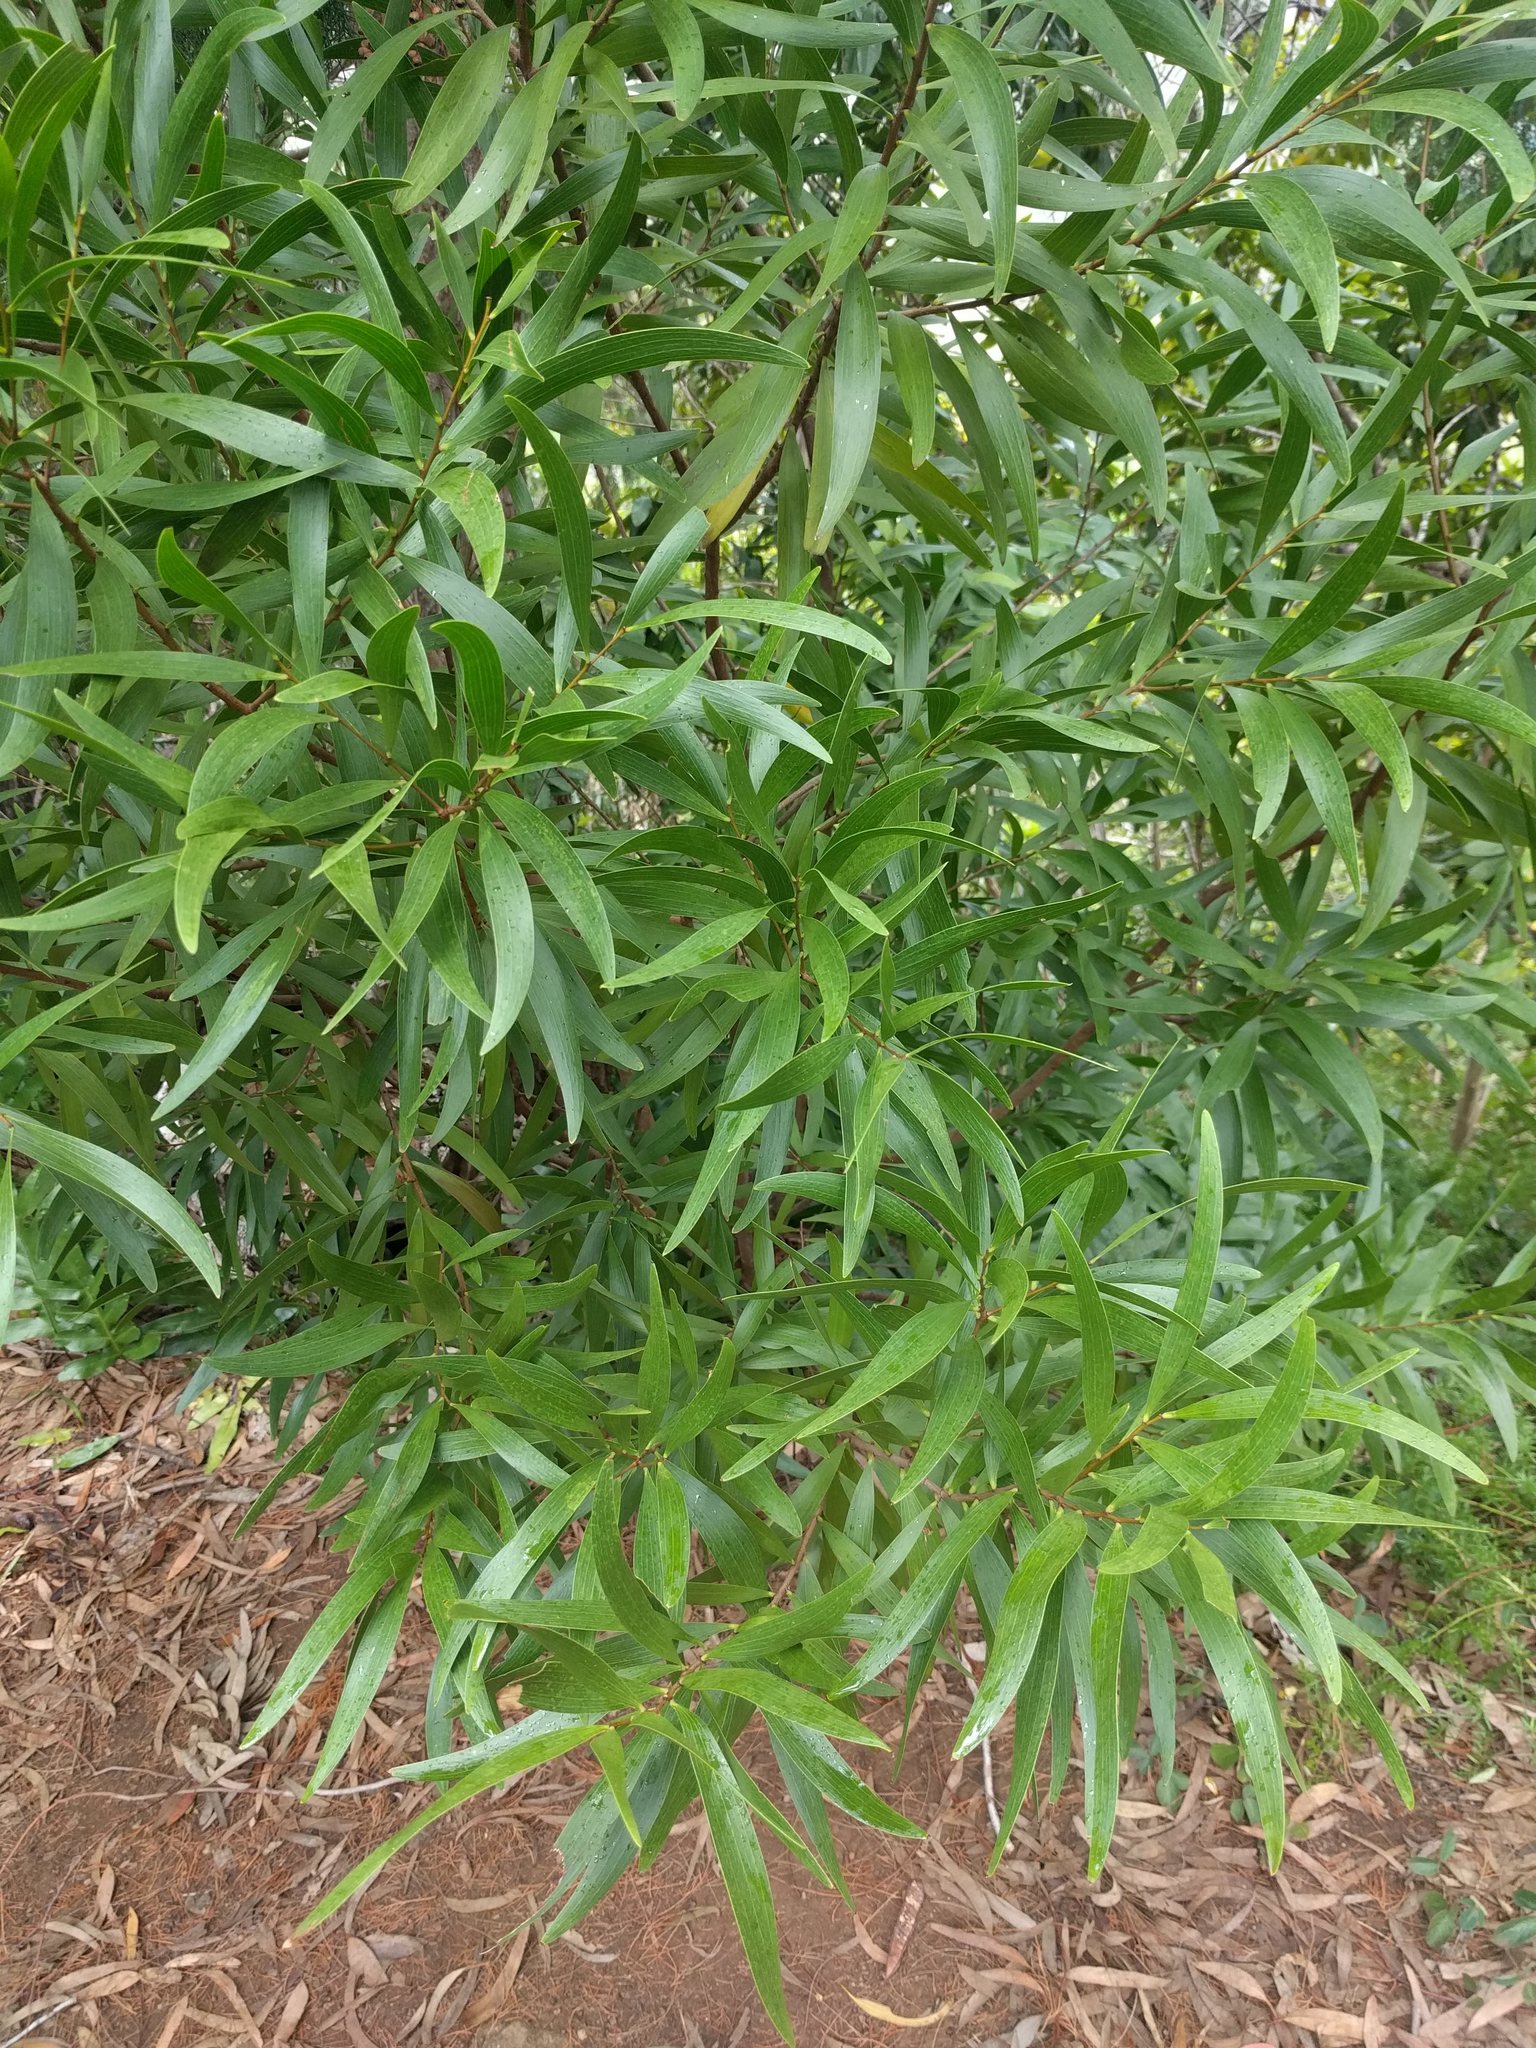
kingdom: Plantae
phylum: Tracheophyta
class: Magnoliopsida
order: Fabales
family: Fabaceae
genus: Acacia
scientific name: Acacia confusa
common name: Formosan koa
